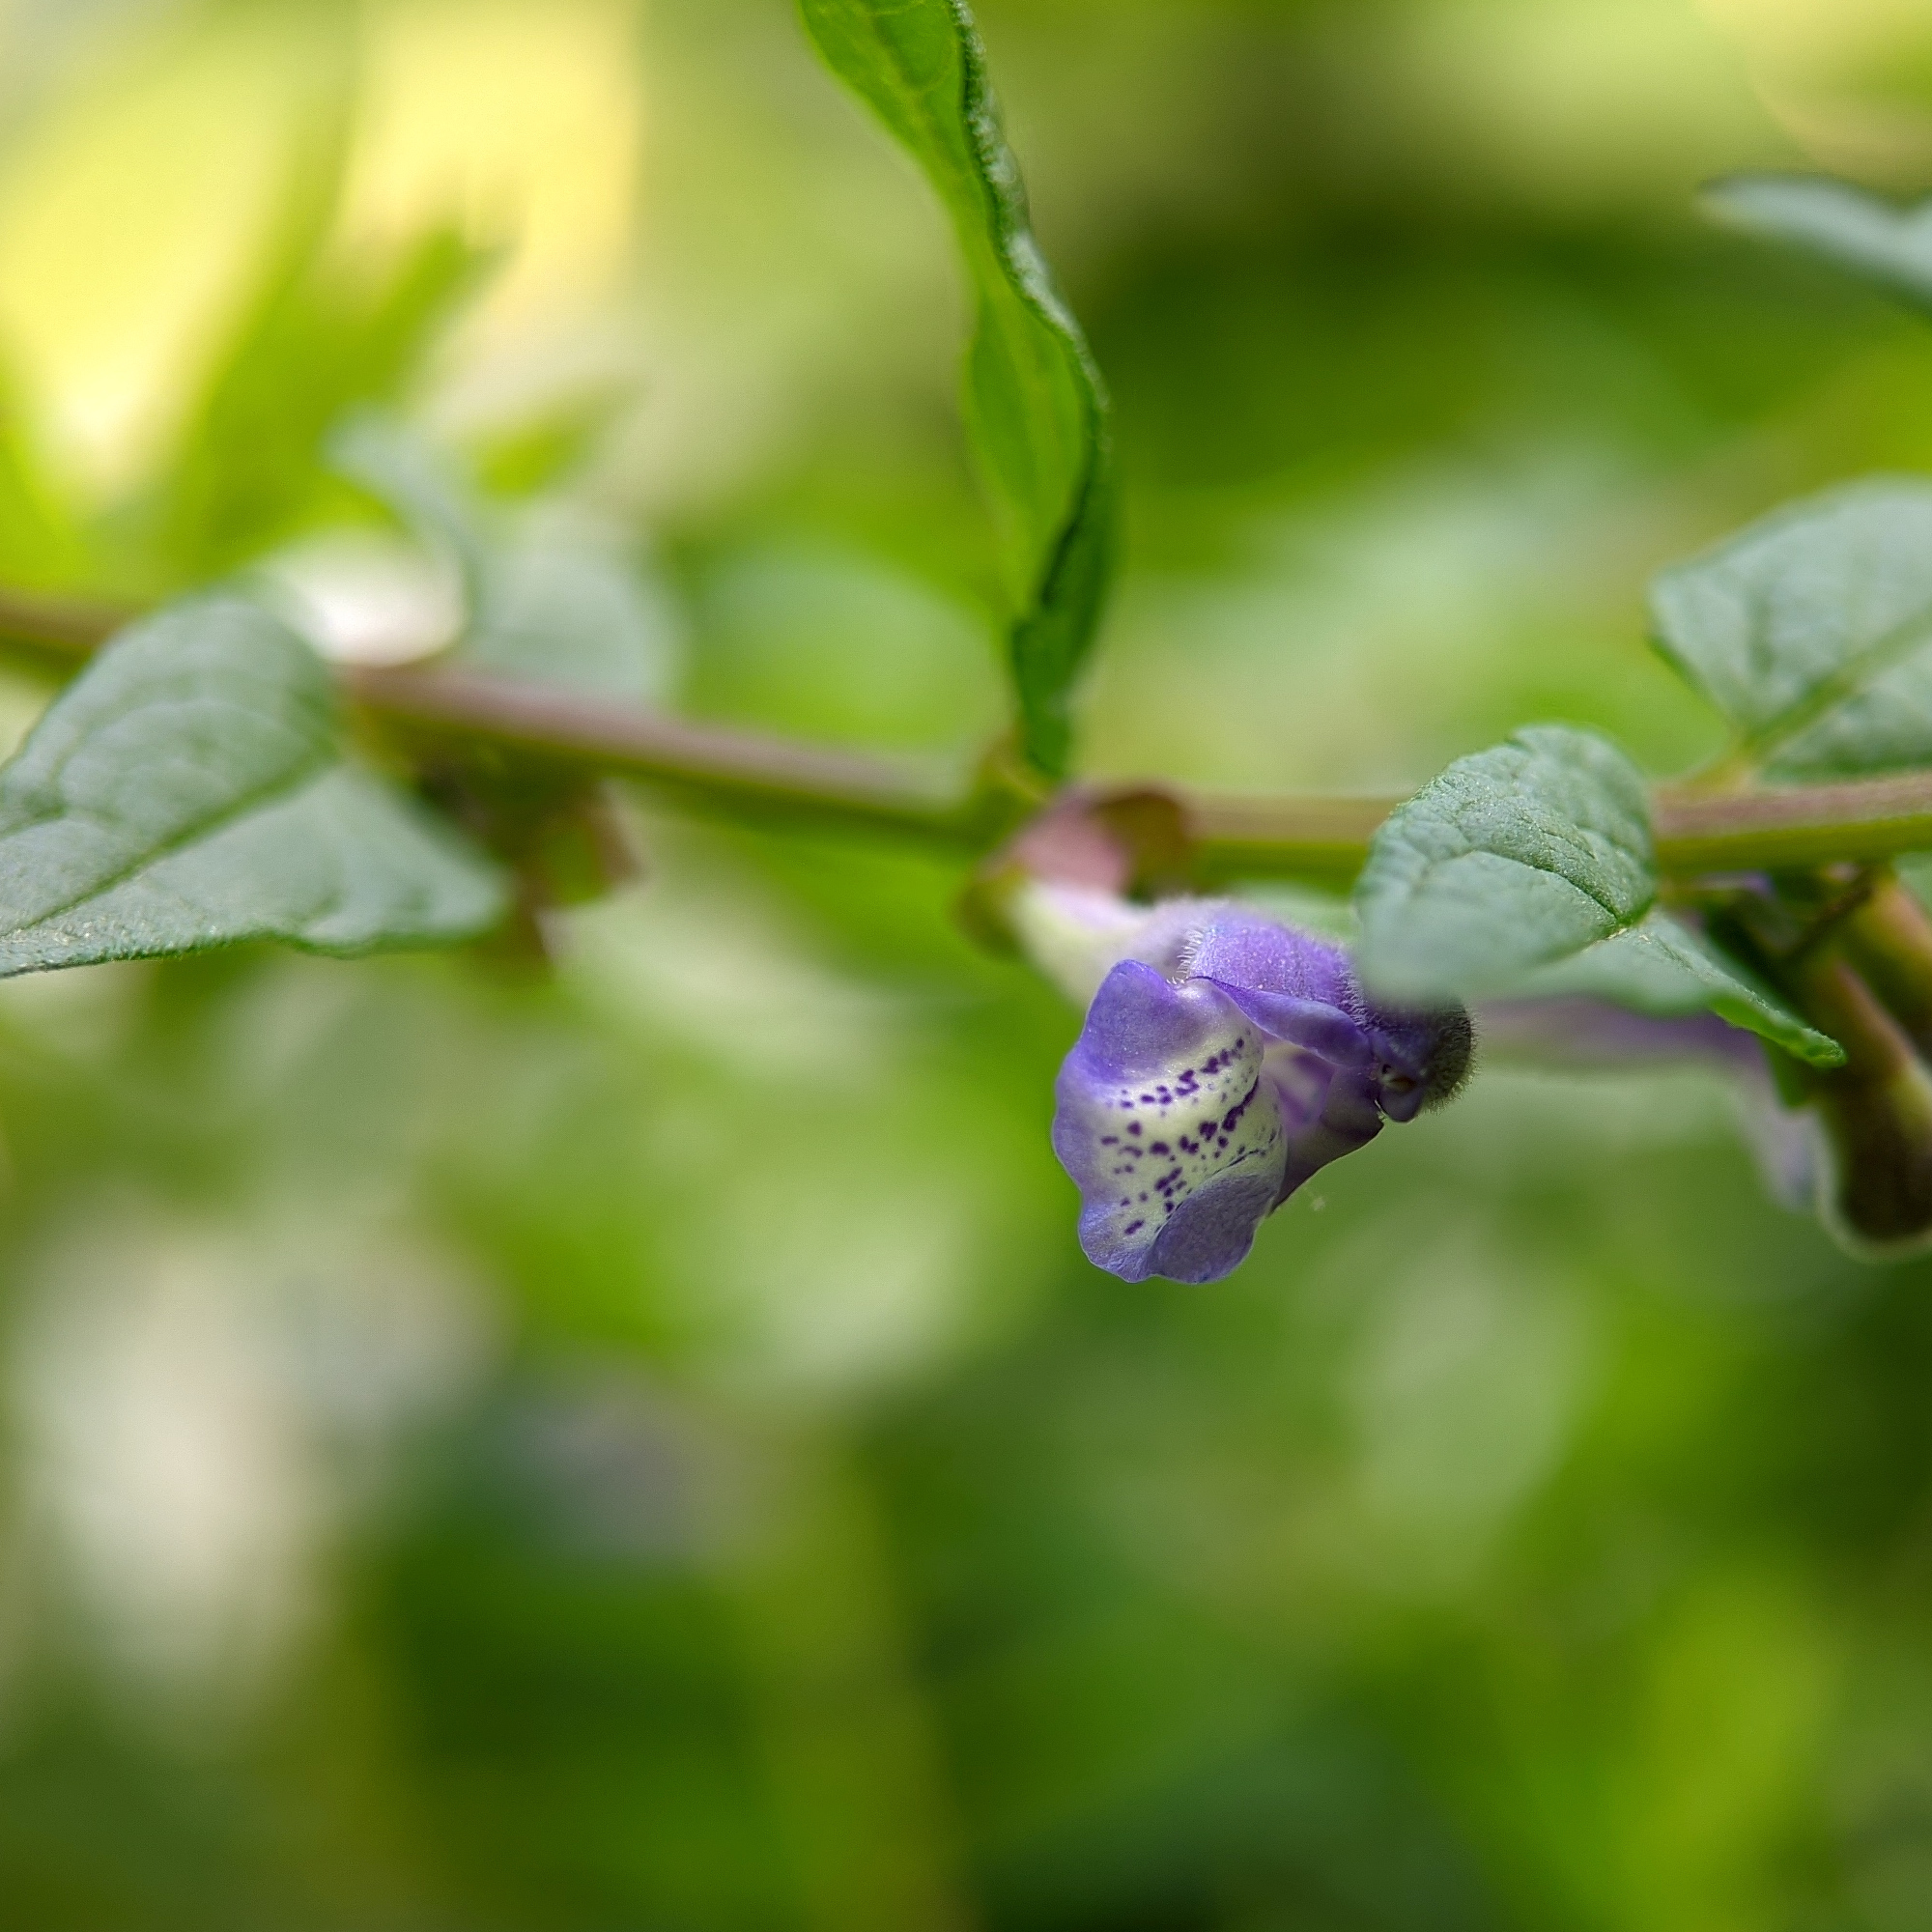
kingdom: Plantae
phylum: Tracheophyta
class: Magnoliopsida
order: Lamiales
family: Lamiaceae
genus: Scutellaria
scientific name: Scutellaria galericulata
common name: Skullcap
